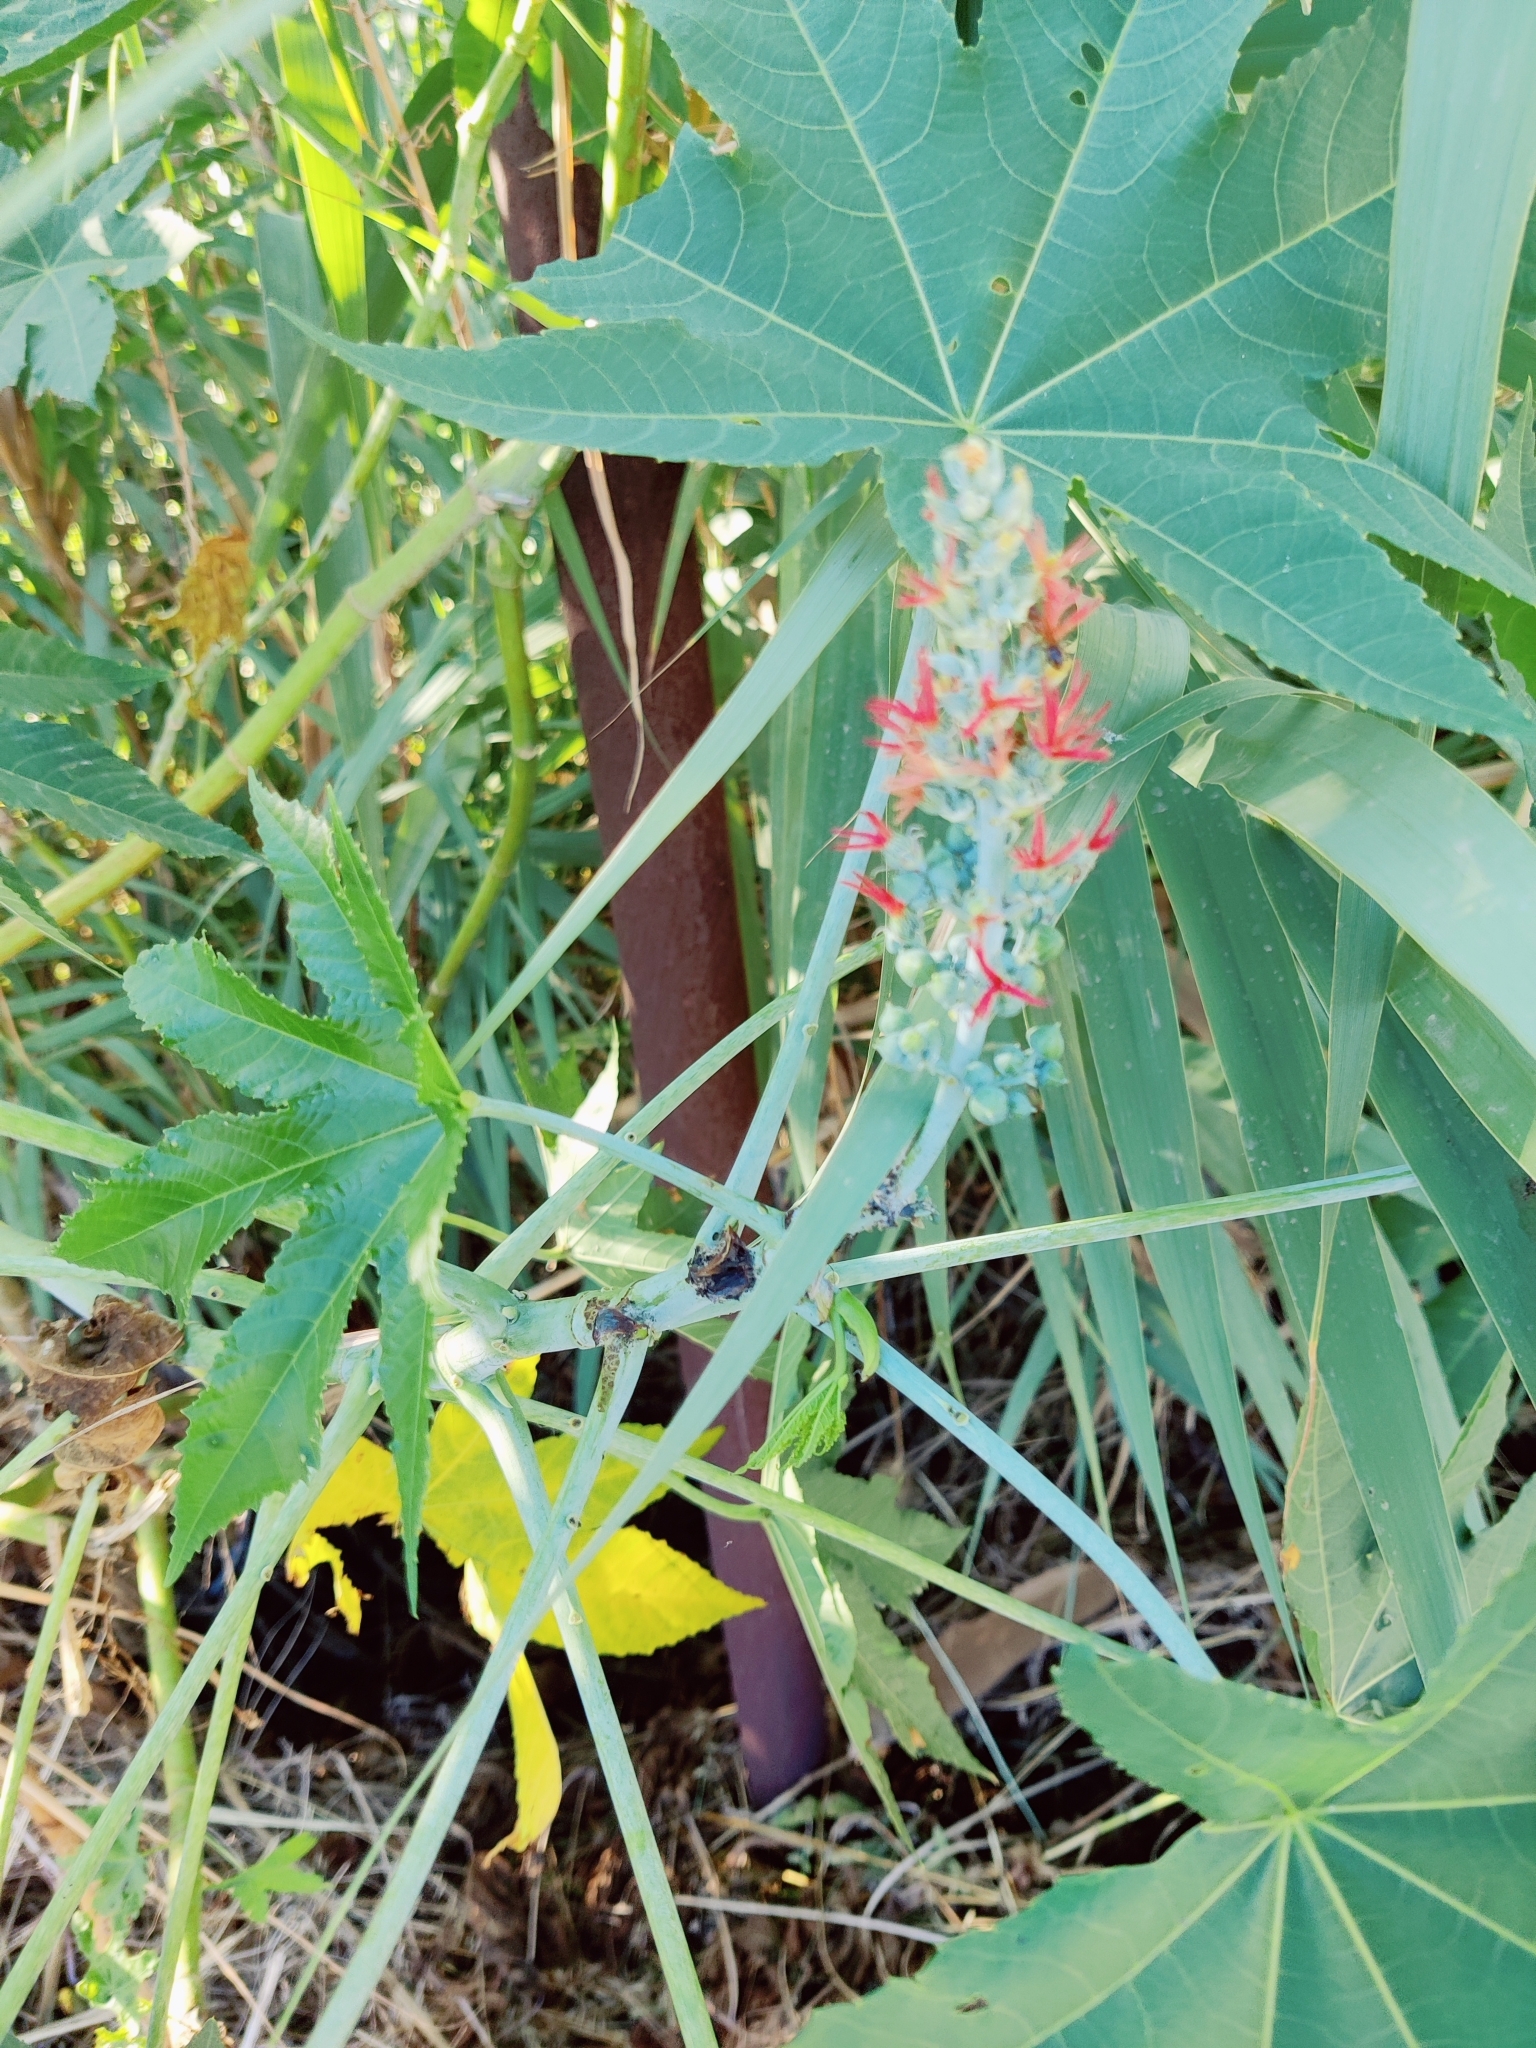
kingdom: Plantae
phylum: Tracheophyta
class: Magnoliopsida
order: Malpighiales
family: Euphorbiaceae
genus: Ricinus
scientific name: Ricinus communis
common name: Castor-oil-plant
